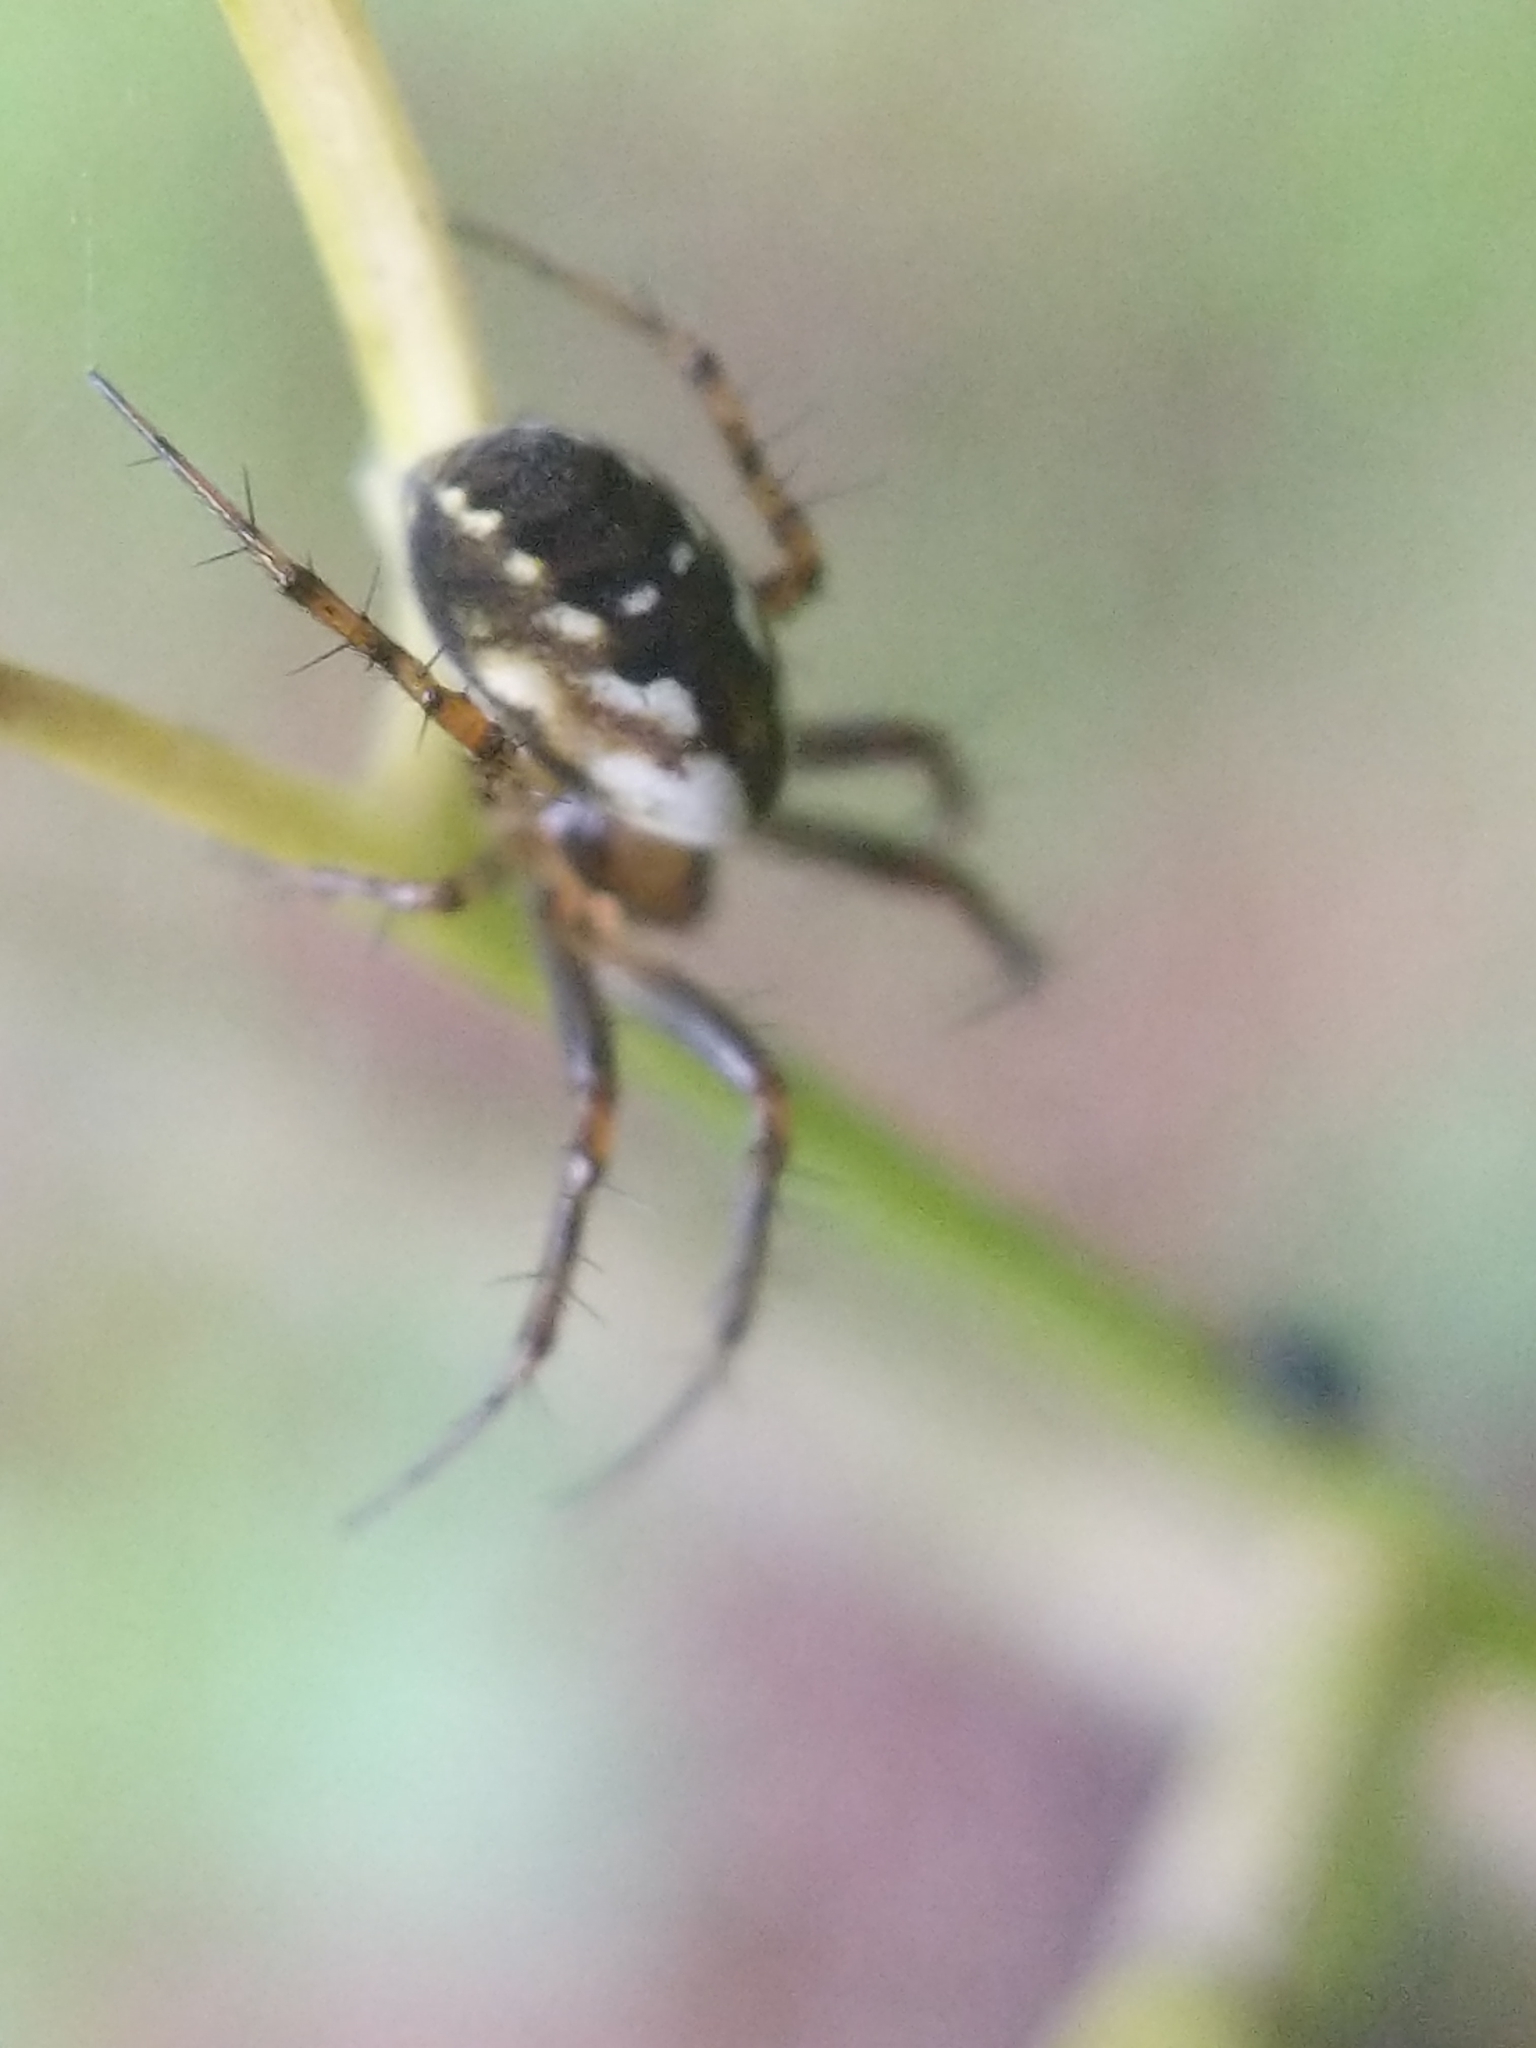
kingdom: Animalia
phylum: Arthropoda
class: Arachnida
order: Araneae
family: Araneidae
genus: Mangora
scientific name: Mangora placida
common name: Tuft-legged orbweaver
